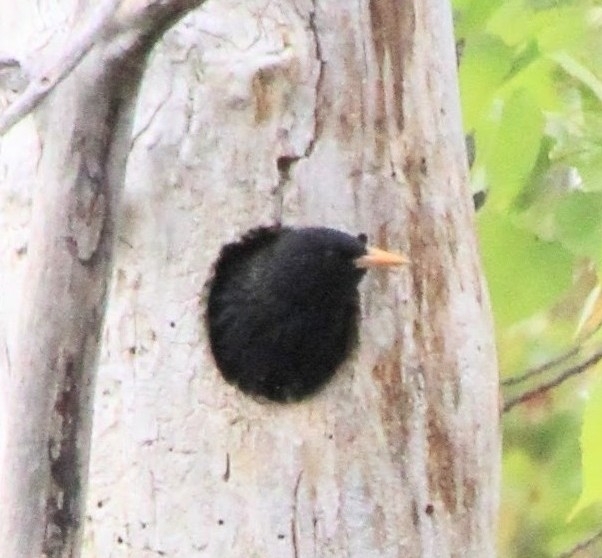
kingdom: Animalia
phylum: Chordata
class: Aves
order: Passeriformes
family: Sturnidae
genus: Sturnus
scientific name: Sturnus vulgaris
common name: Common starling
